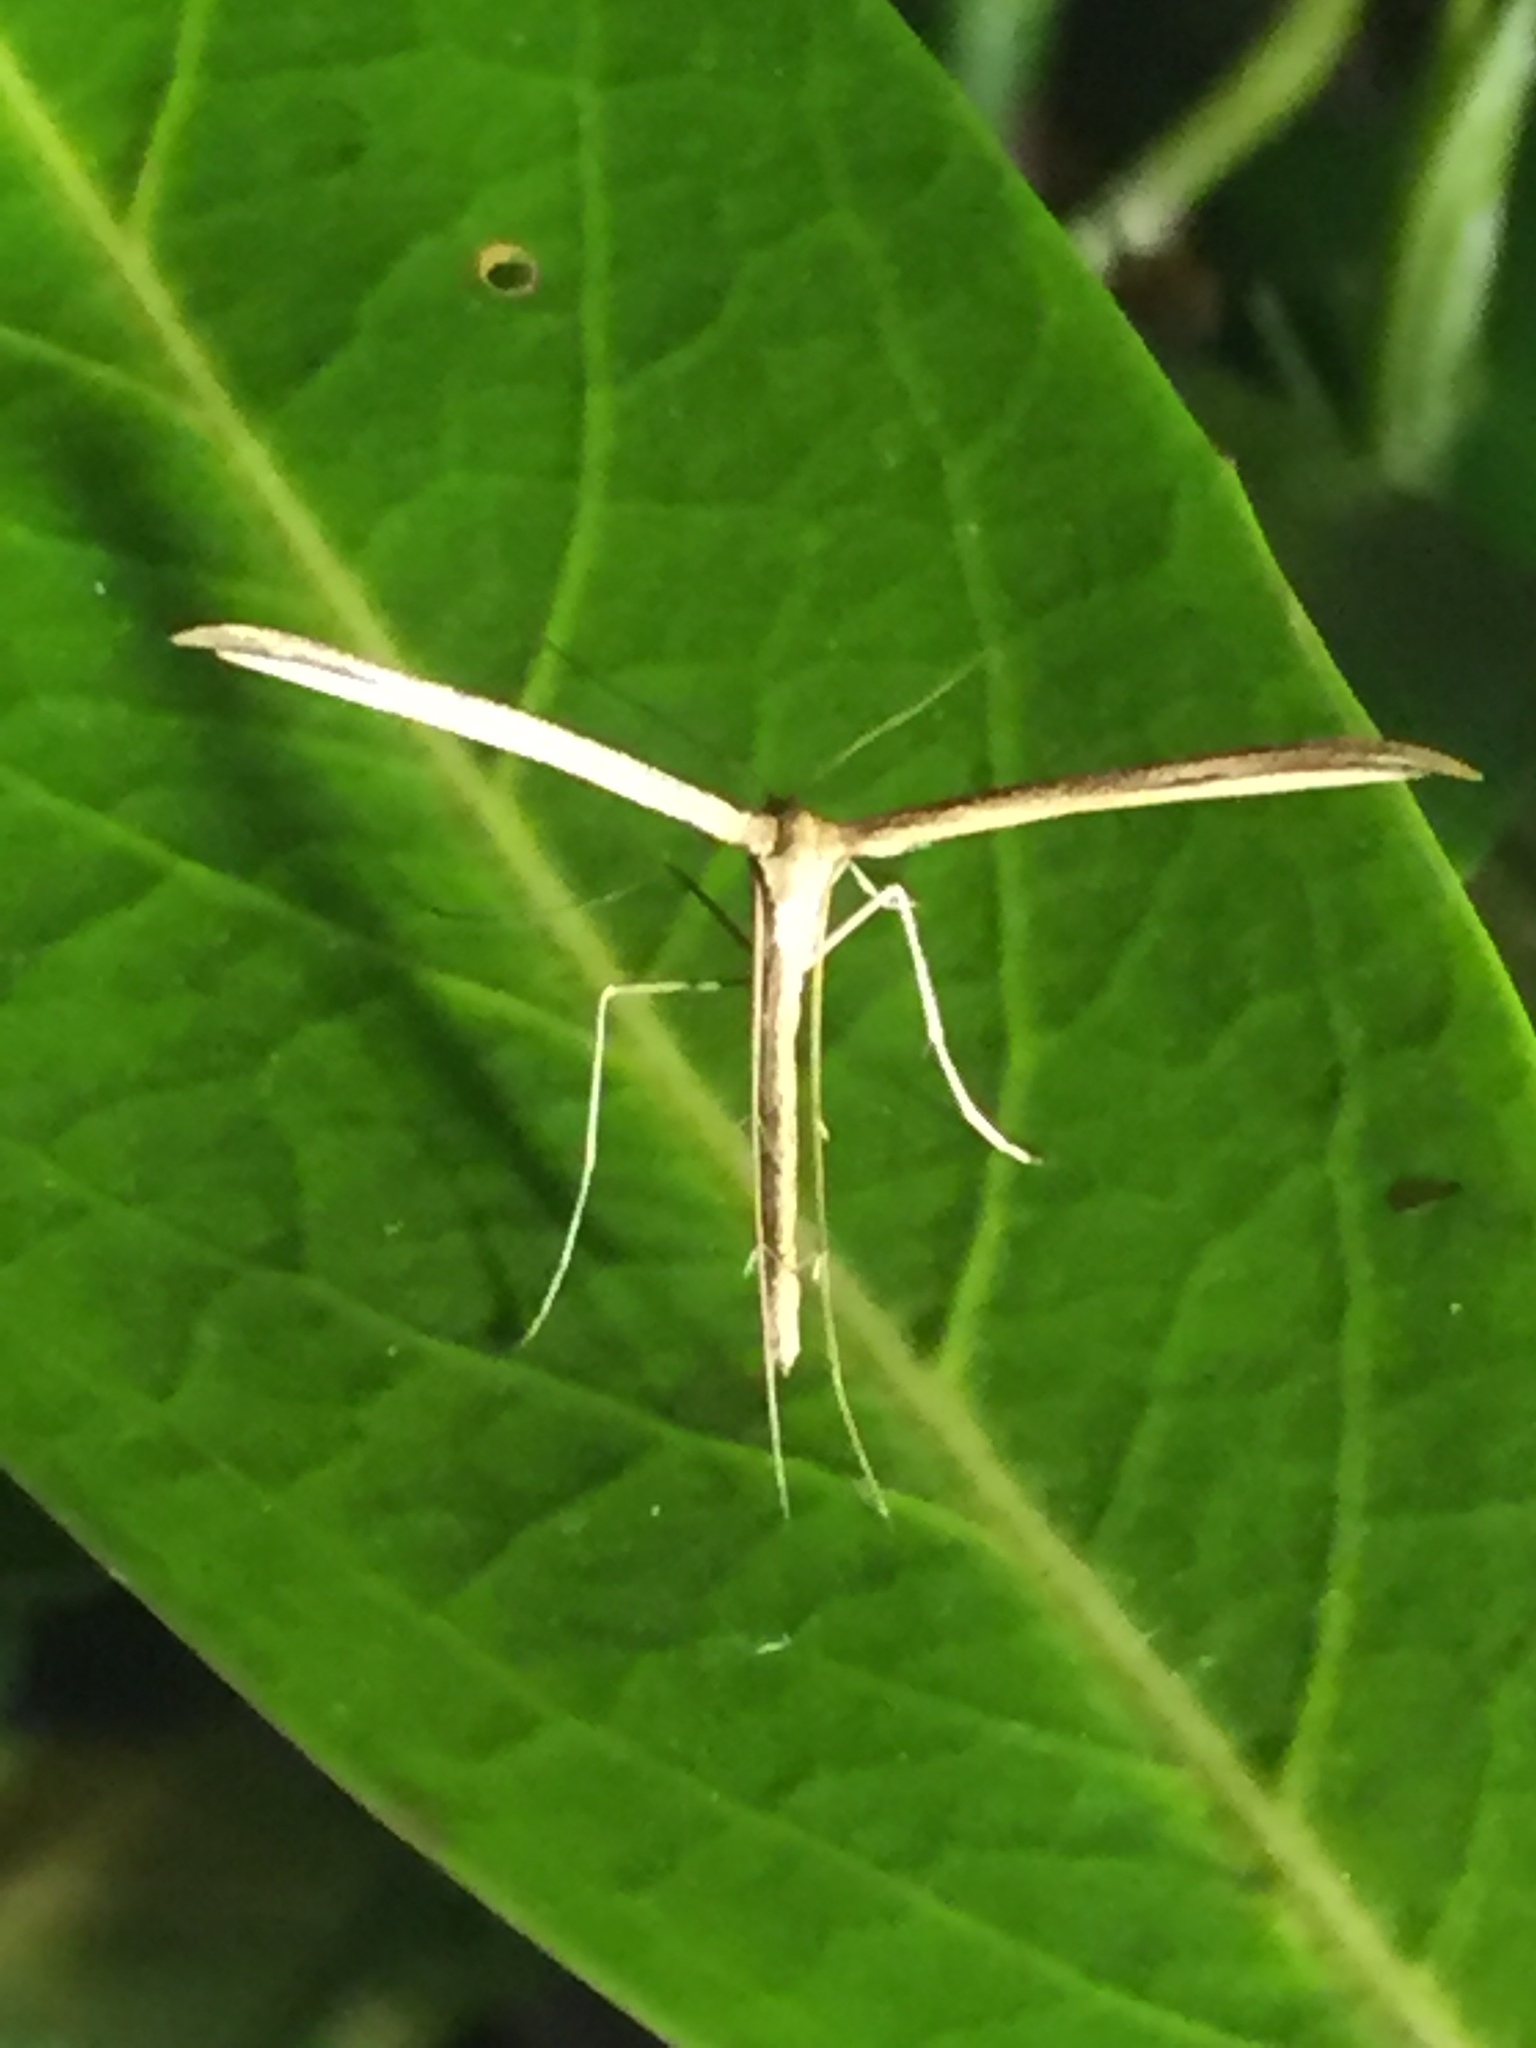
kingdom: Animalia
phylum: Arthropoda
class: Insecta
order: Lepidoptera
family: Pterophoridae
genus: Emmelina
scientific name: Emmelina monodactyla
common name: Common plume
